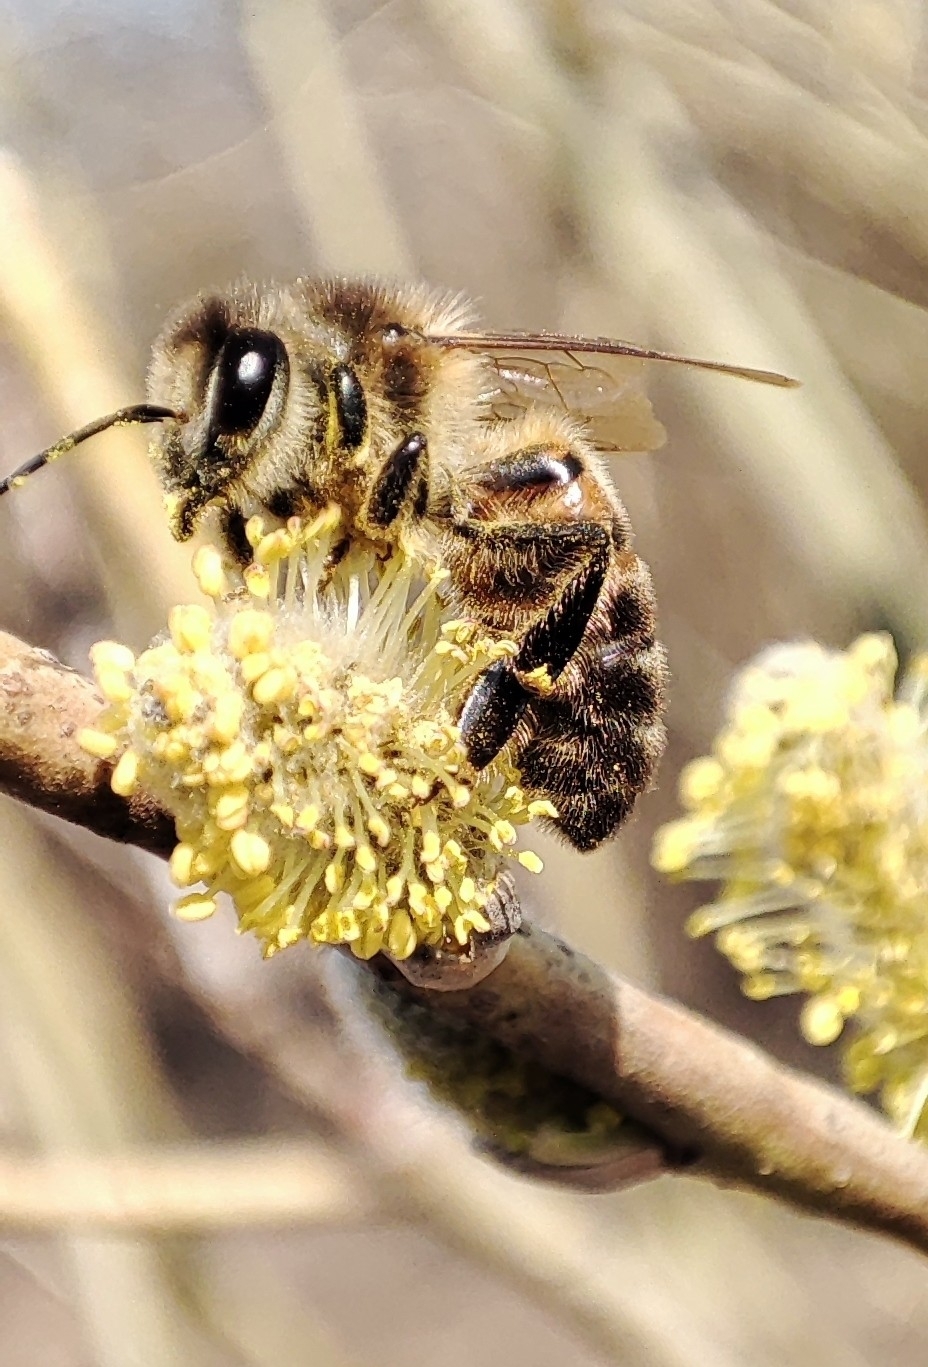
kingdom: Animalia
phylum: Arthropoda
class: Insecta
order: Hymenoptera
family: Apidae
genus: Apis
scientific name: Apis mellifera
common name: Honey bee
